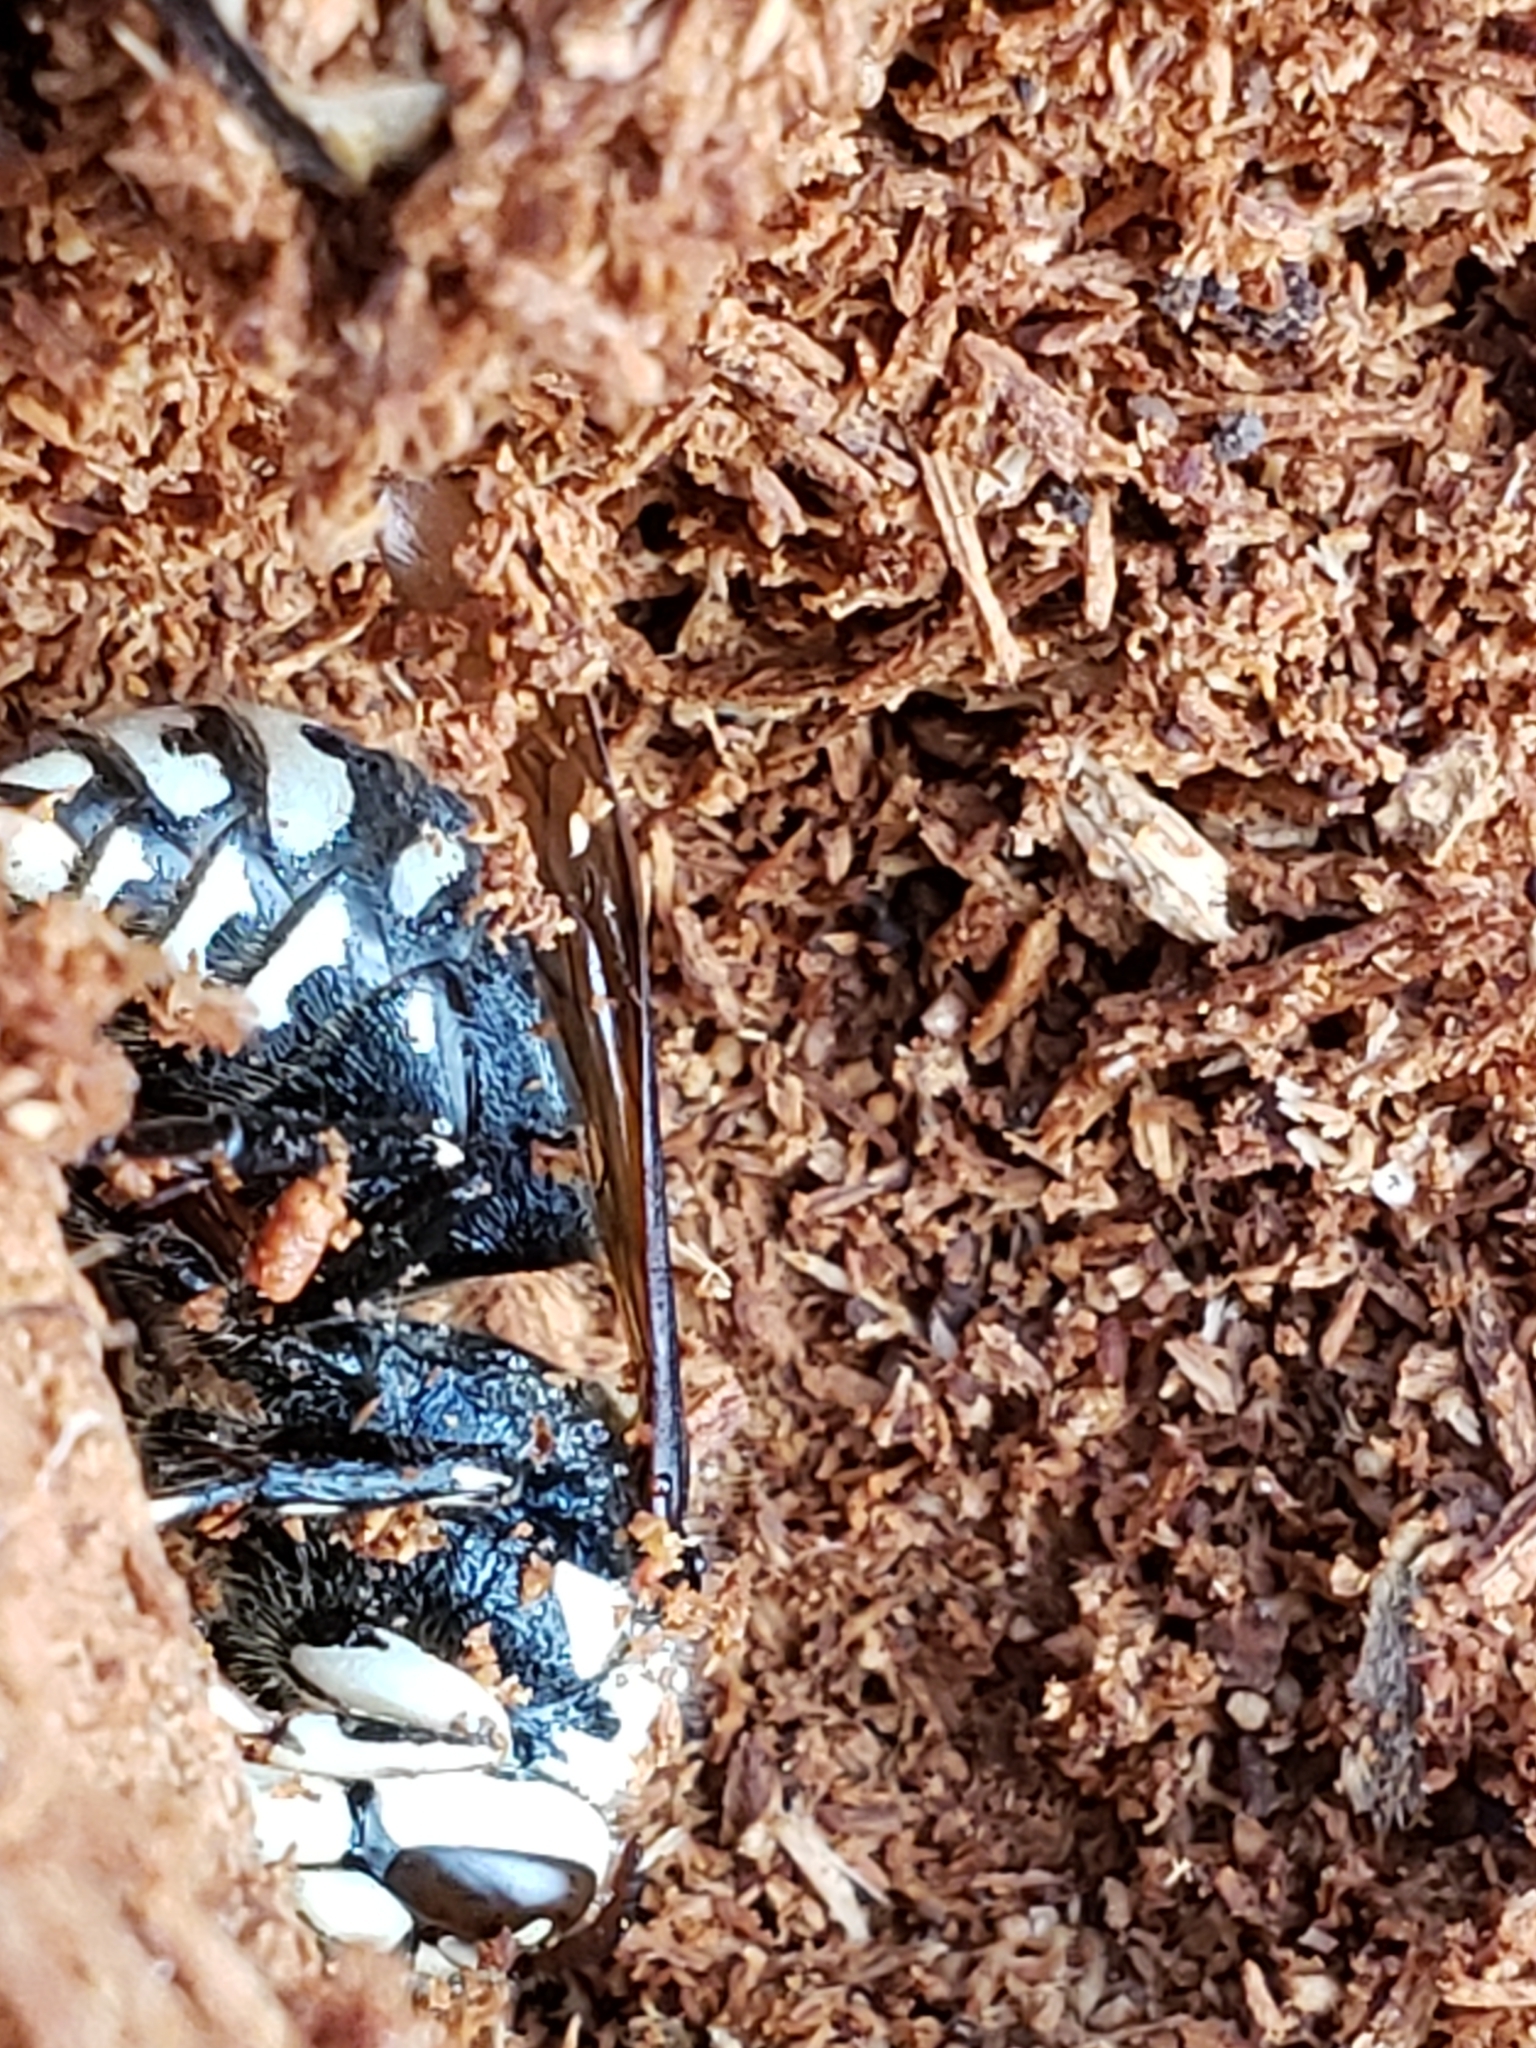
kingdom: Animalia
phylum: Arthropoda
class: Insecta
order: Hymenoptera
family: Vespidae
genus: Dolichovespula
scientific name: Dolichovespula maculata
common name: Bald-faced hornet
